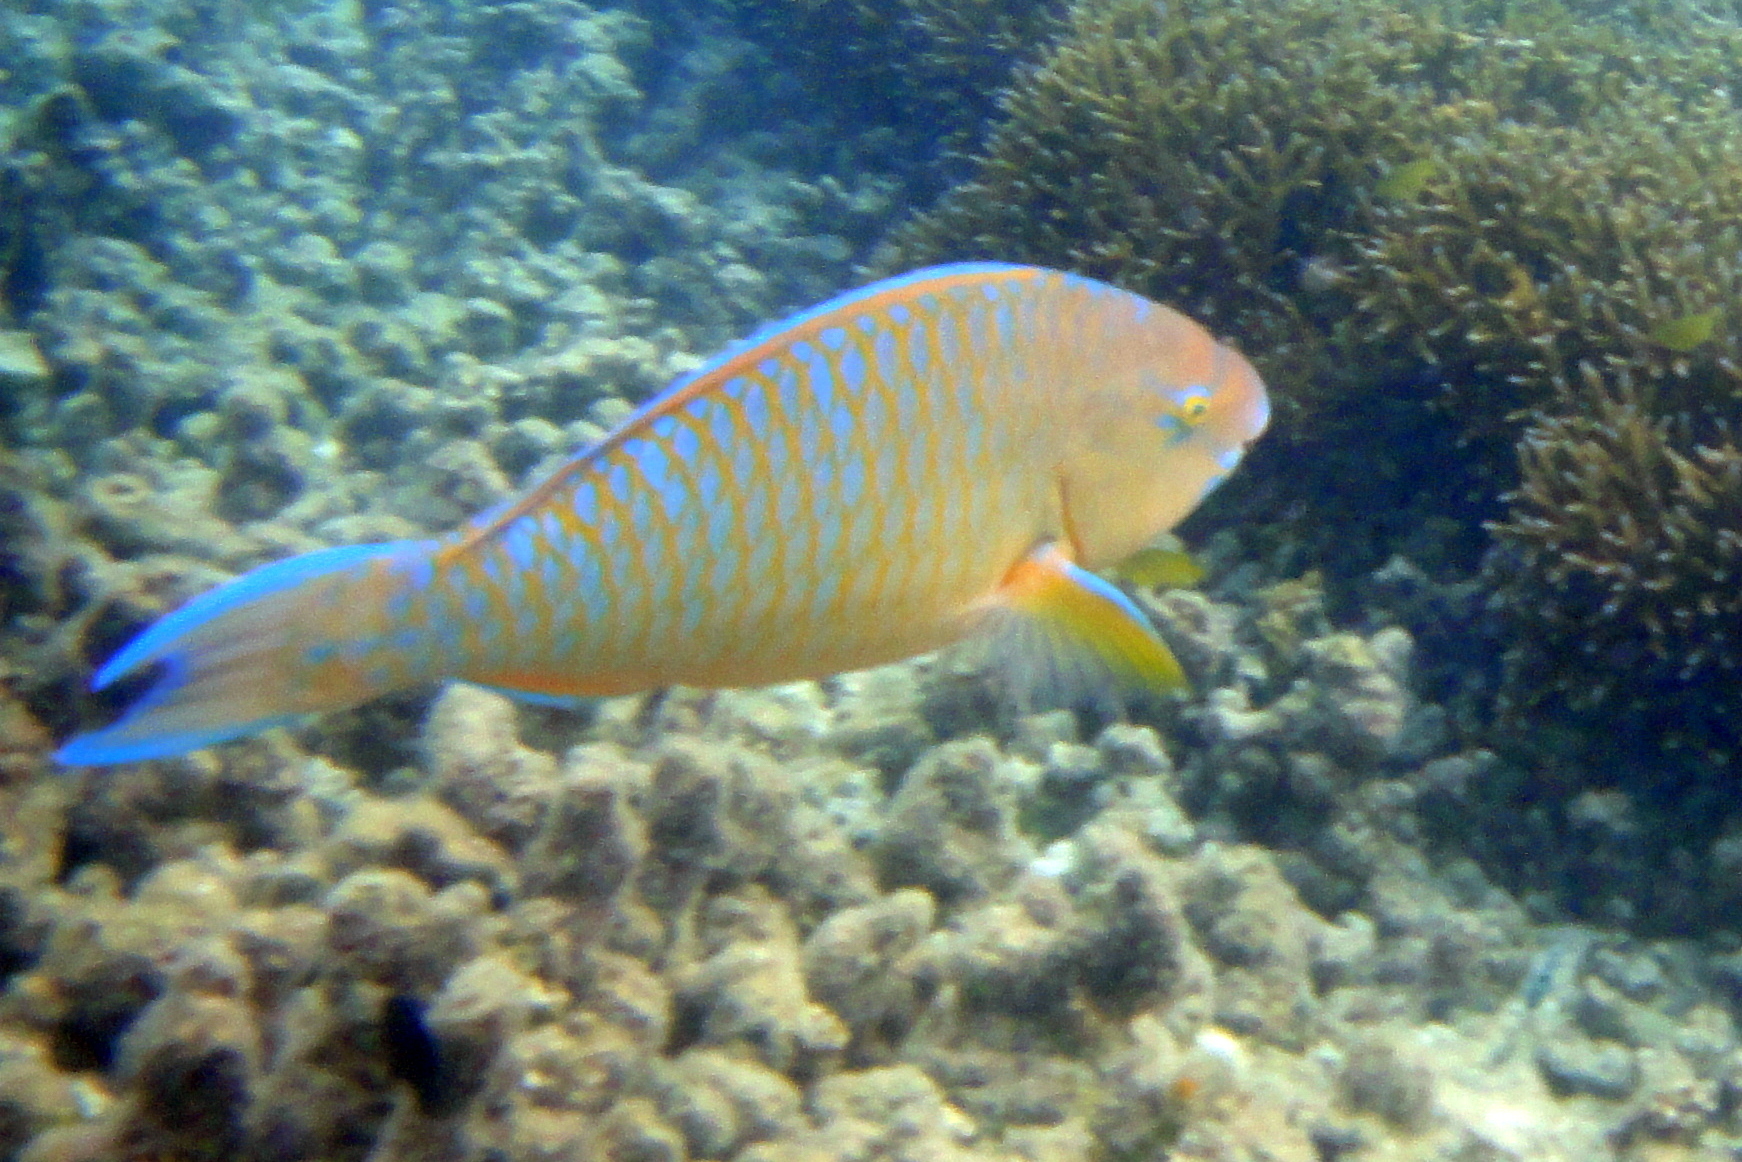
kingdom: Animalia
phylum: Chordata
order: Perciformes
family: Scaridae
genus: Scarus
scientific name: Scarus ghobban
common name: Blue-barred parrotfish
